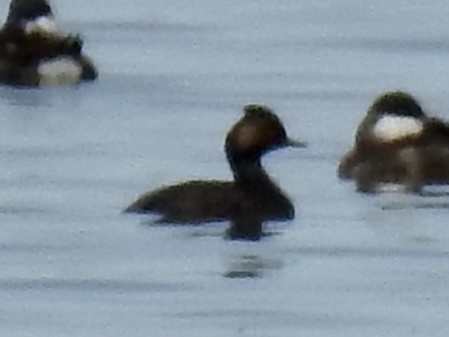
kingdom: Animalia
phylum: Chordata
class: Aves
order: Podicipediformes
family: Podicipedidae
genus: Podiceps
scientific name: Podiceps nigricollis
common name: Black-necked grebe
